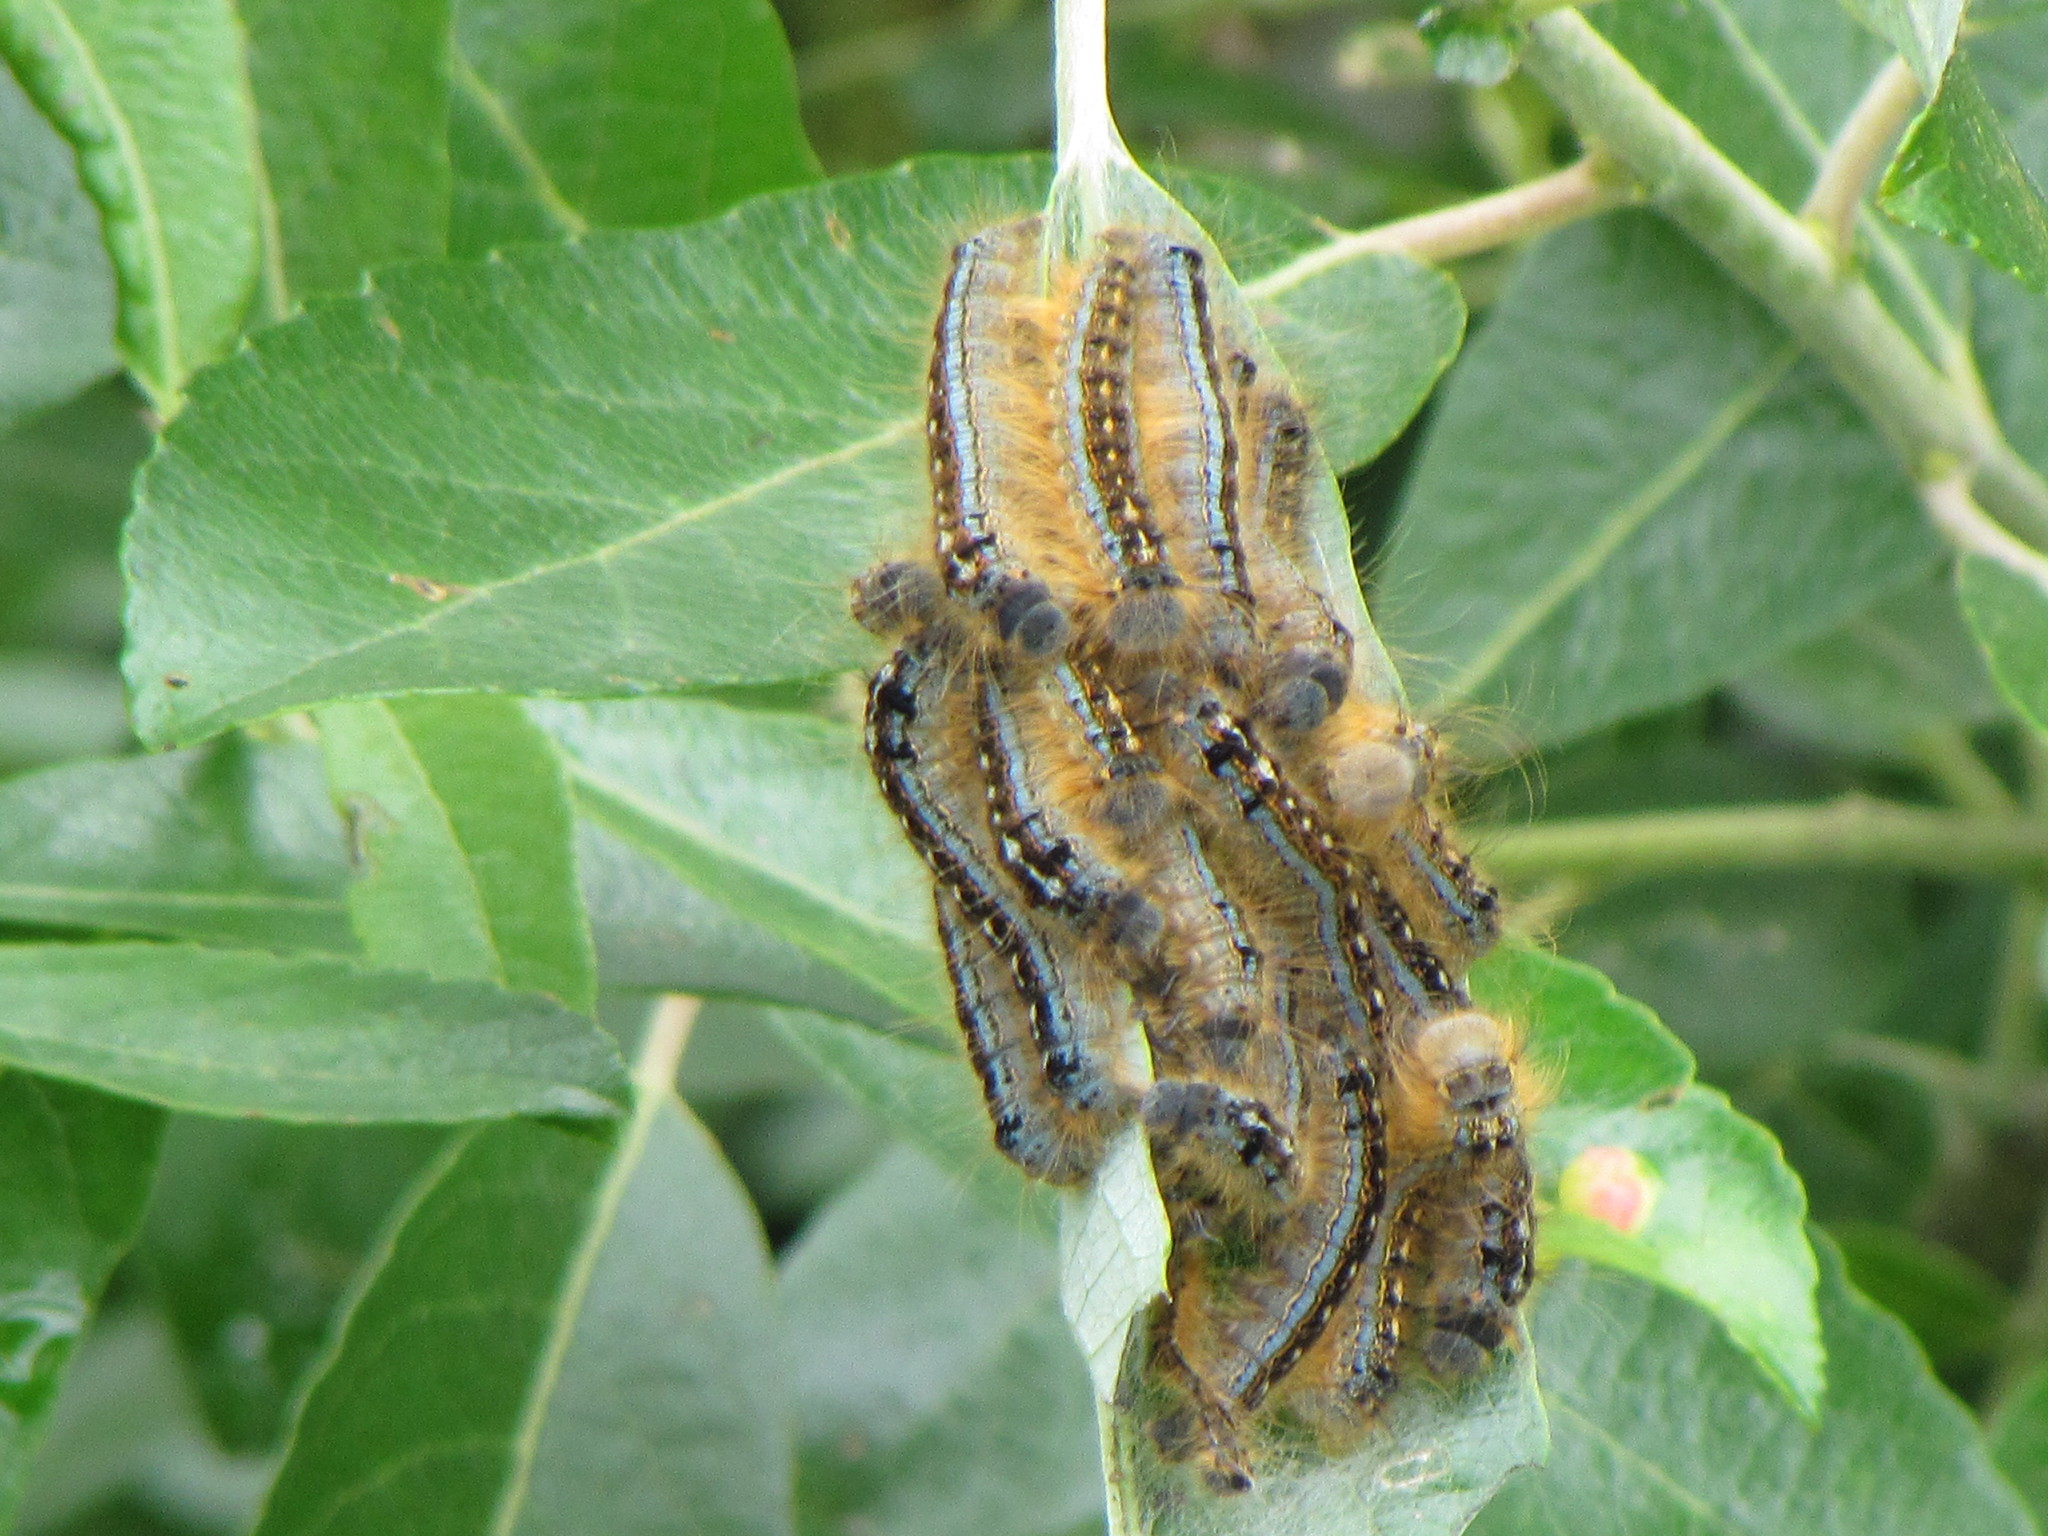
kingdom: Animalia
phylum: Arthropoda
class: Insecta
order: Lepidoptera
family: Lasiocampidae
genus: Malacosoma
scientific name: Malacosoma disstria
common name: Forest tent caterpillar
